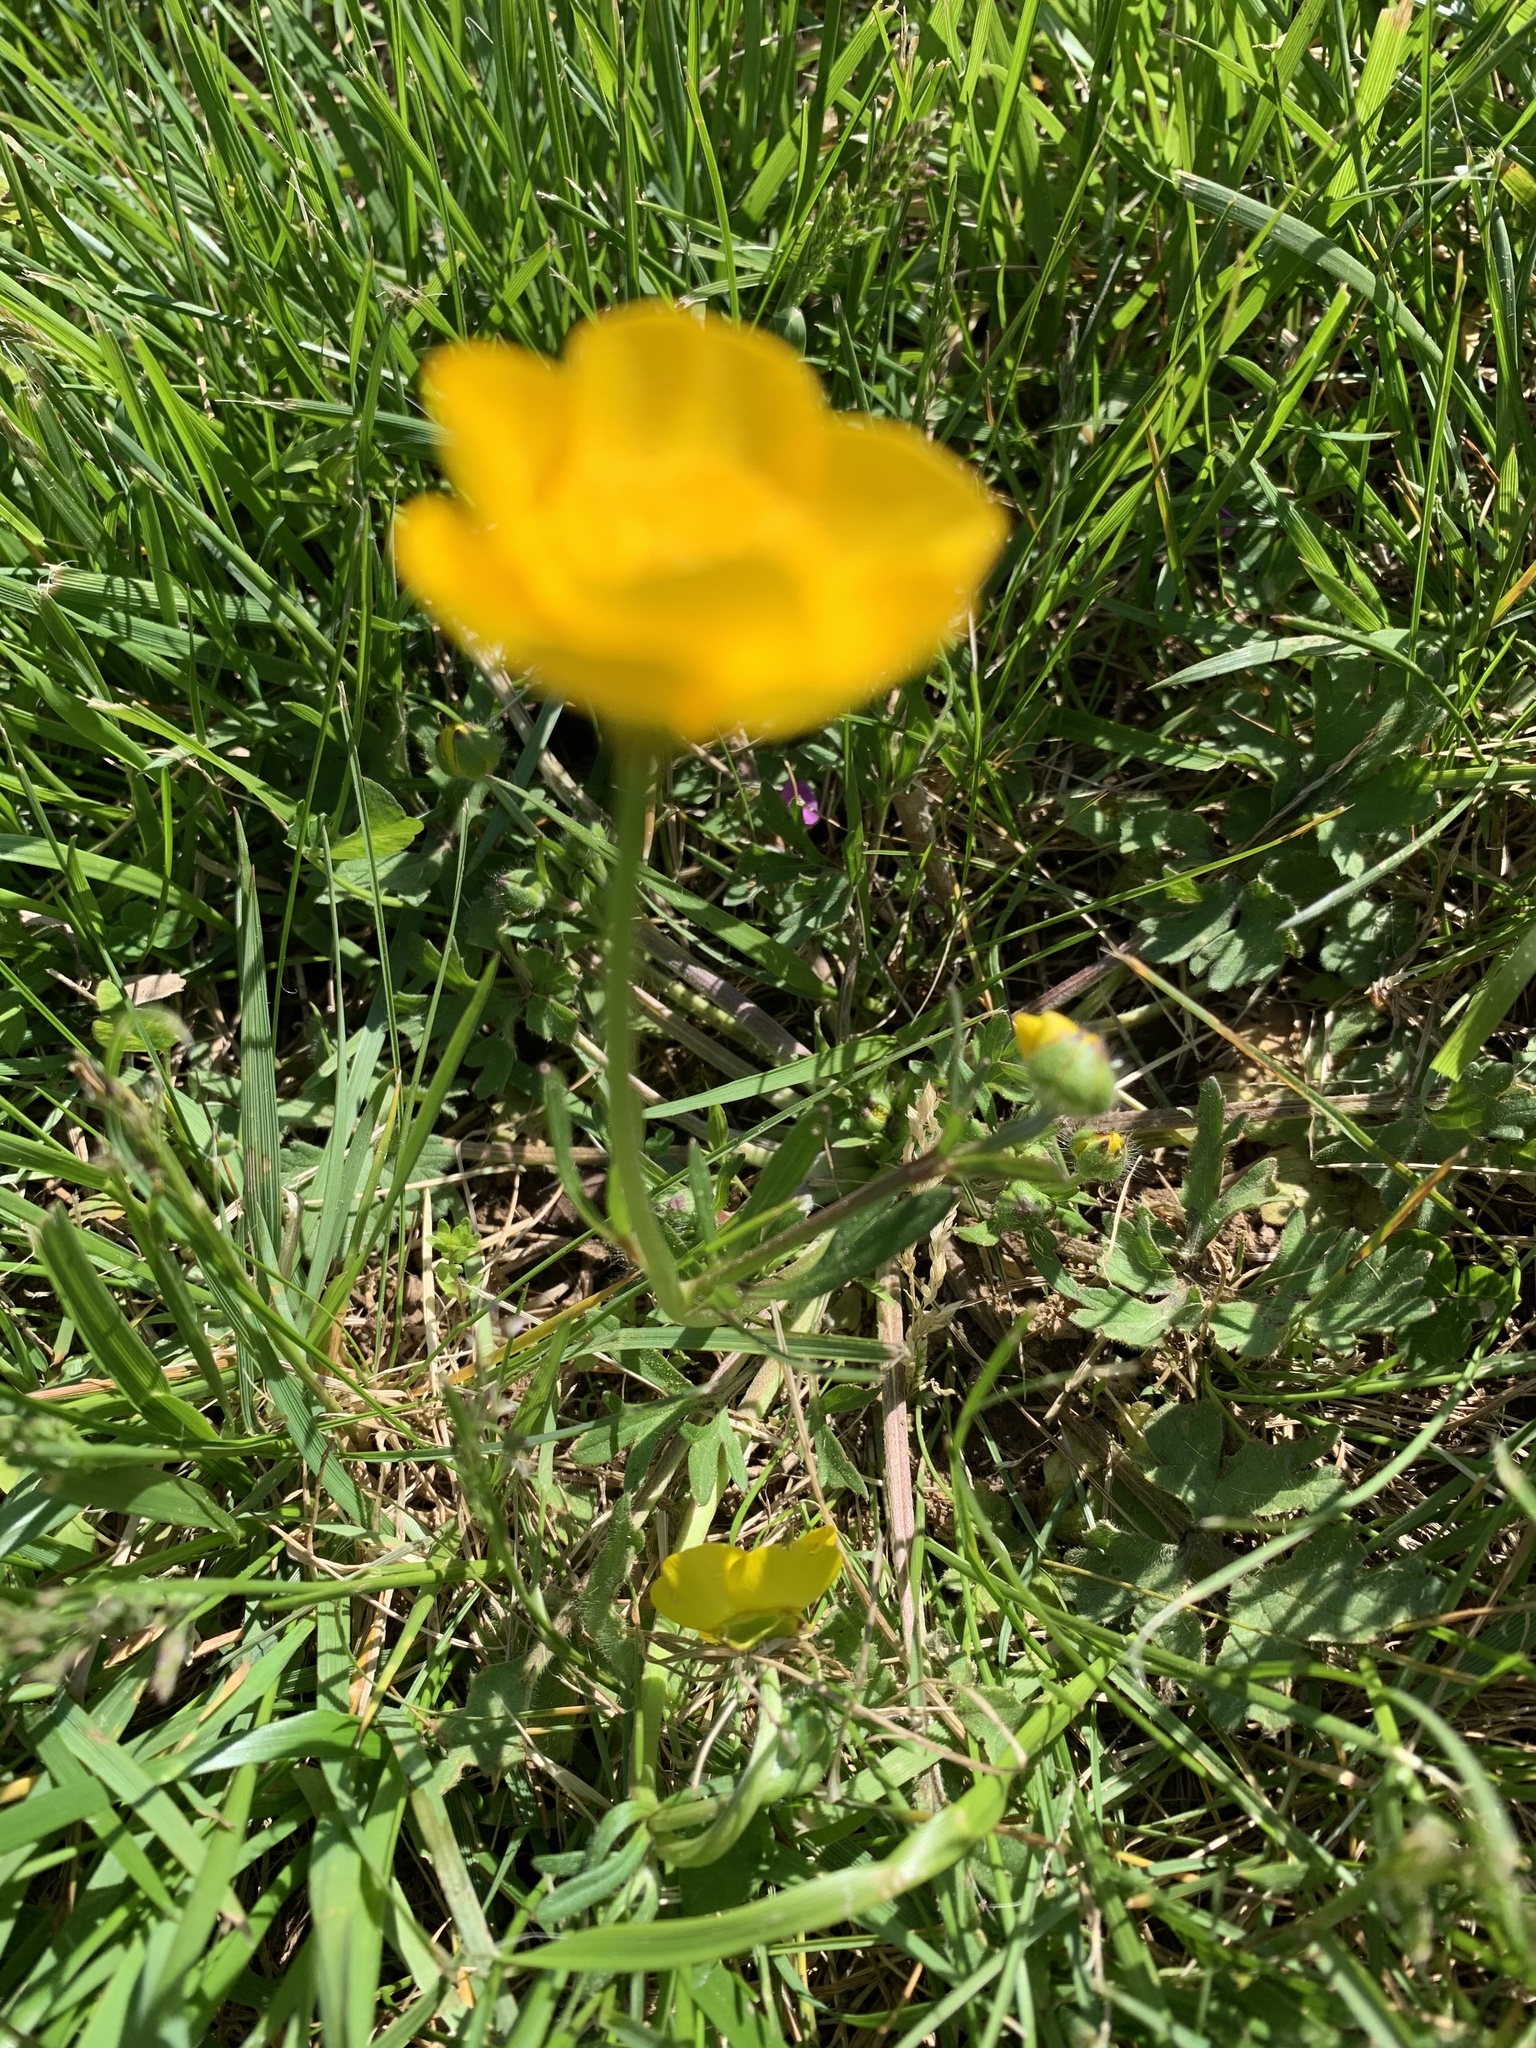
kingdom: Plantae
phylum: Tracheophyta
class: Magnoliopsida
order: Ranunculales
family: Ranunculaceae
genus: Ranunculus
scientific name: Ranunculus bulbosus
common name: Bulbous buttercup
